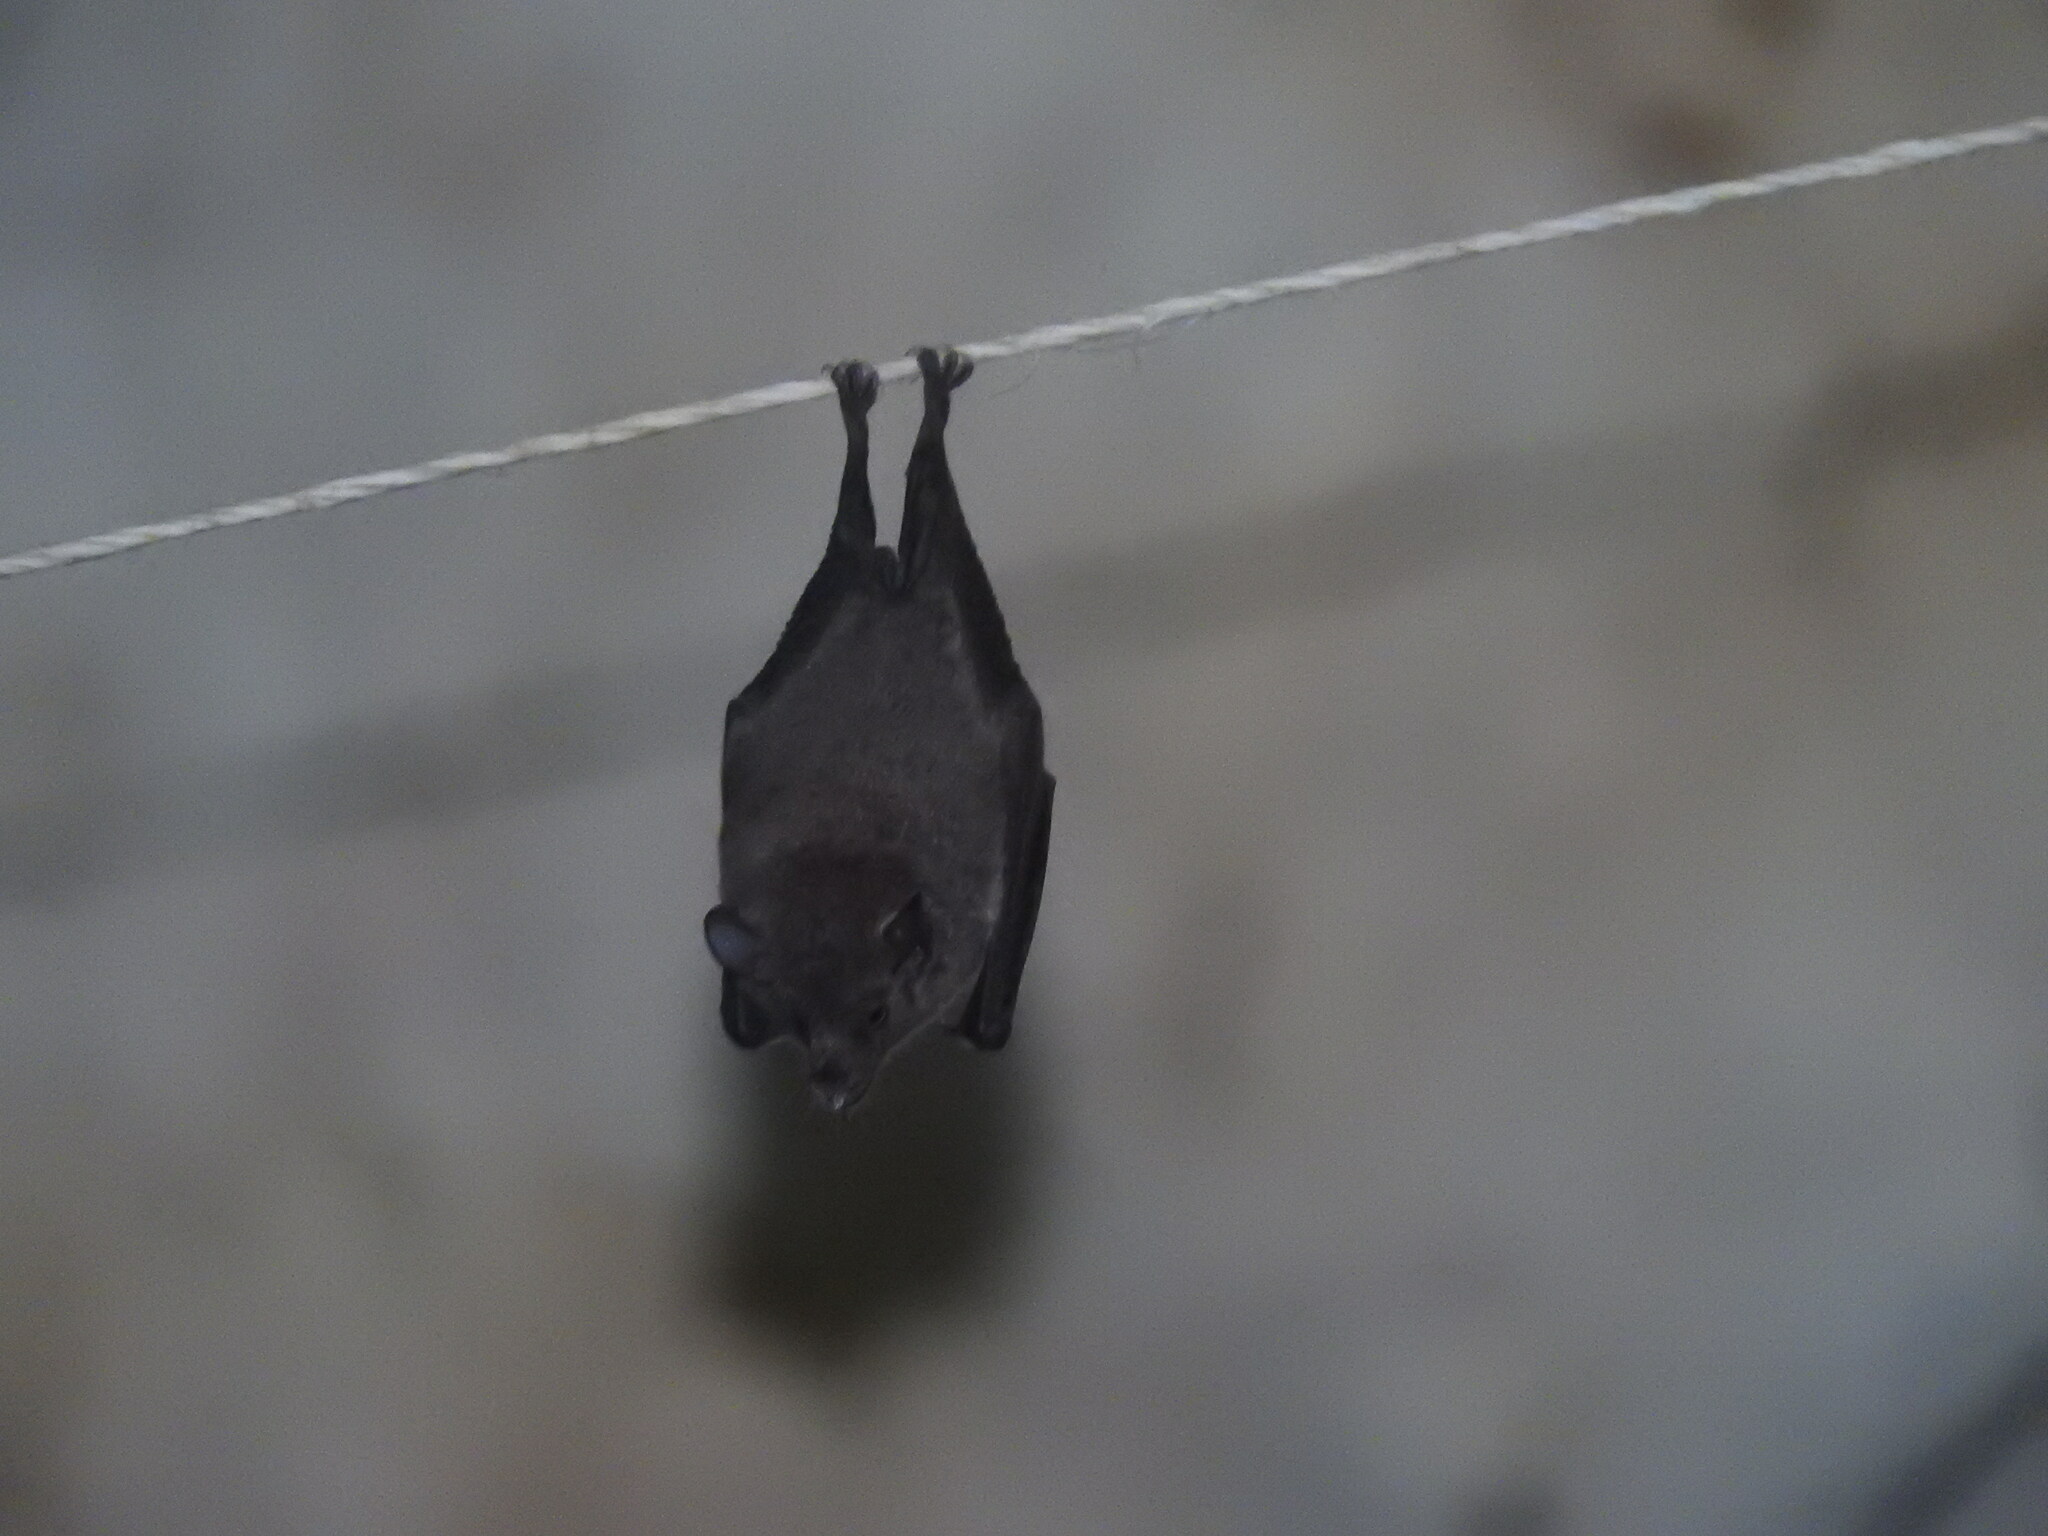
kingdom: Animalia
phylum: Chordata
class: Mammalia
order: Chiroptera
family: Phyllostomidae
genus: Glossophaga
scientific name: Glossophaga soricina
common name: Pallas's long-tongued bat
